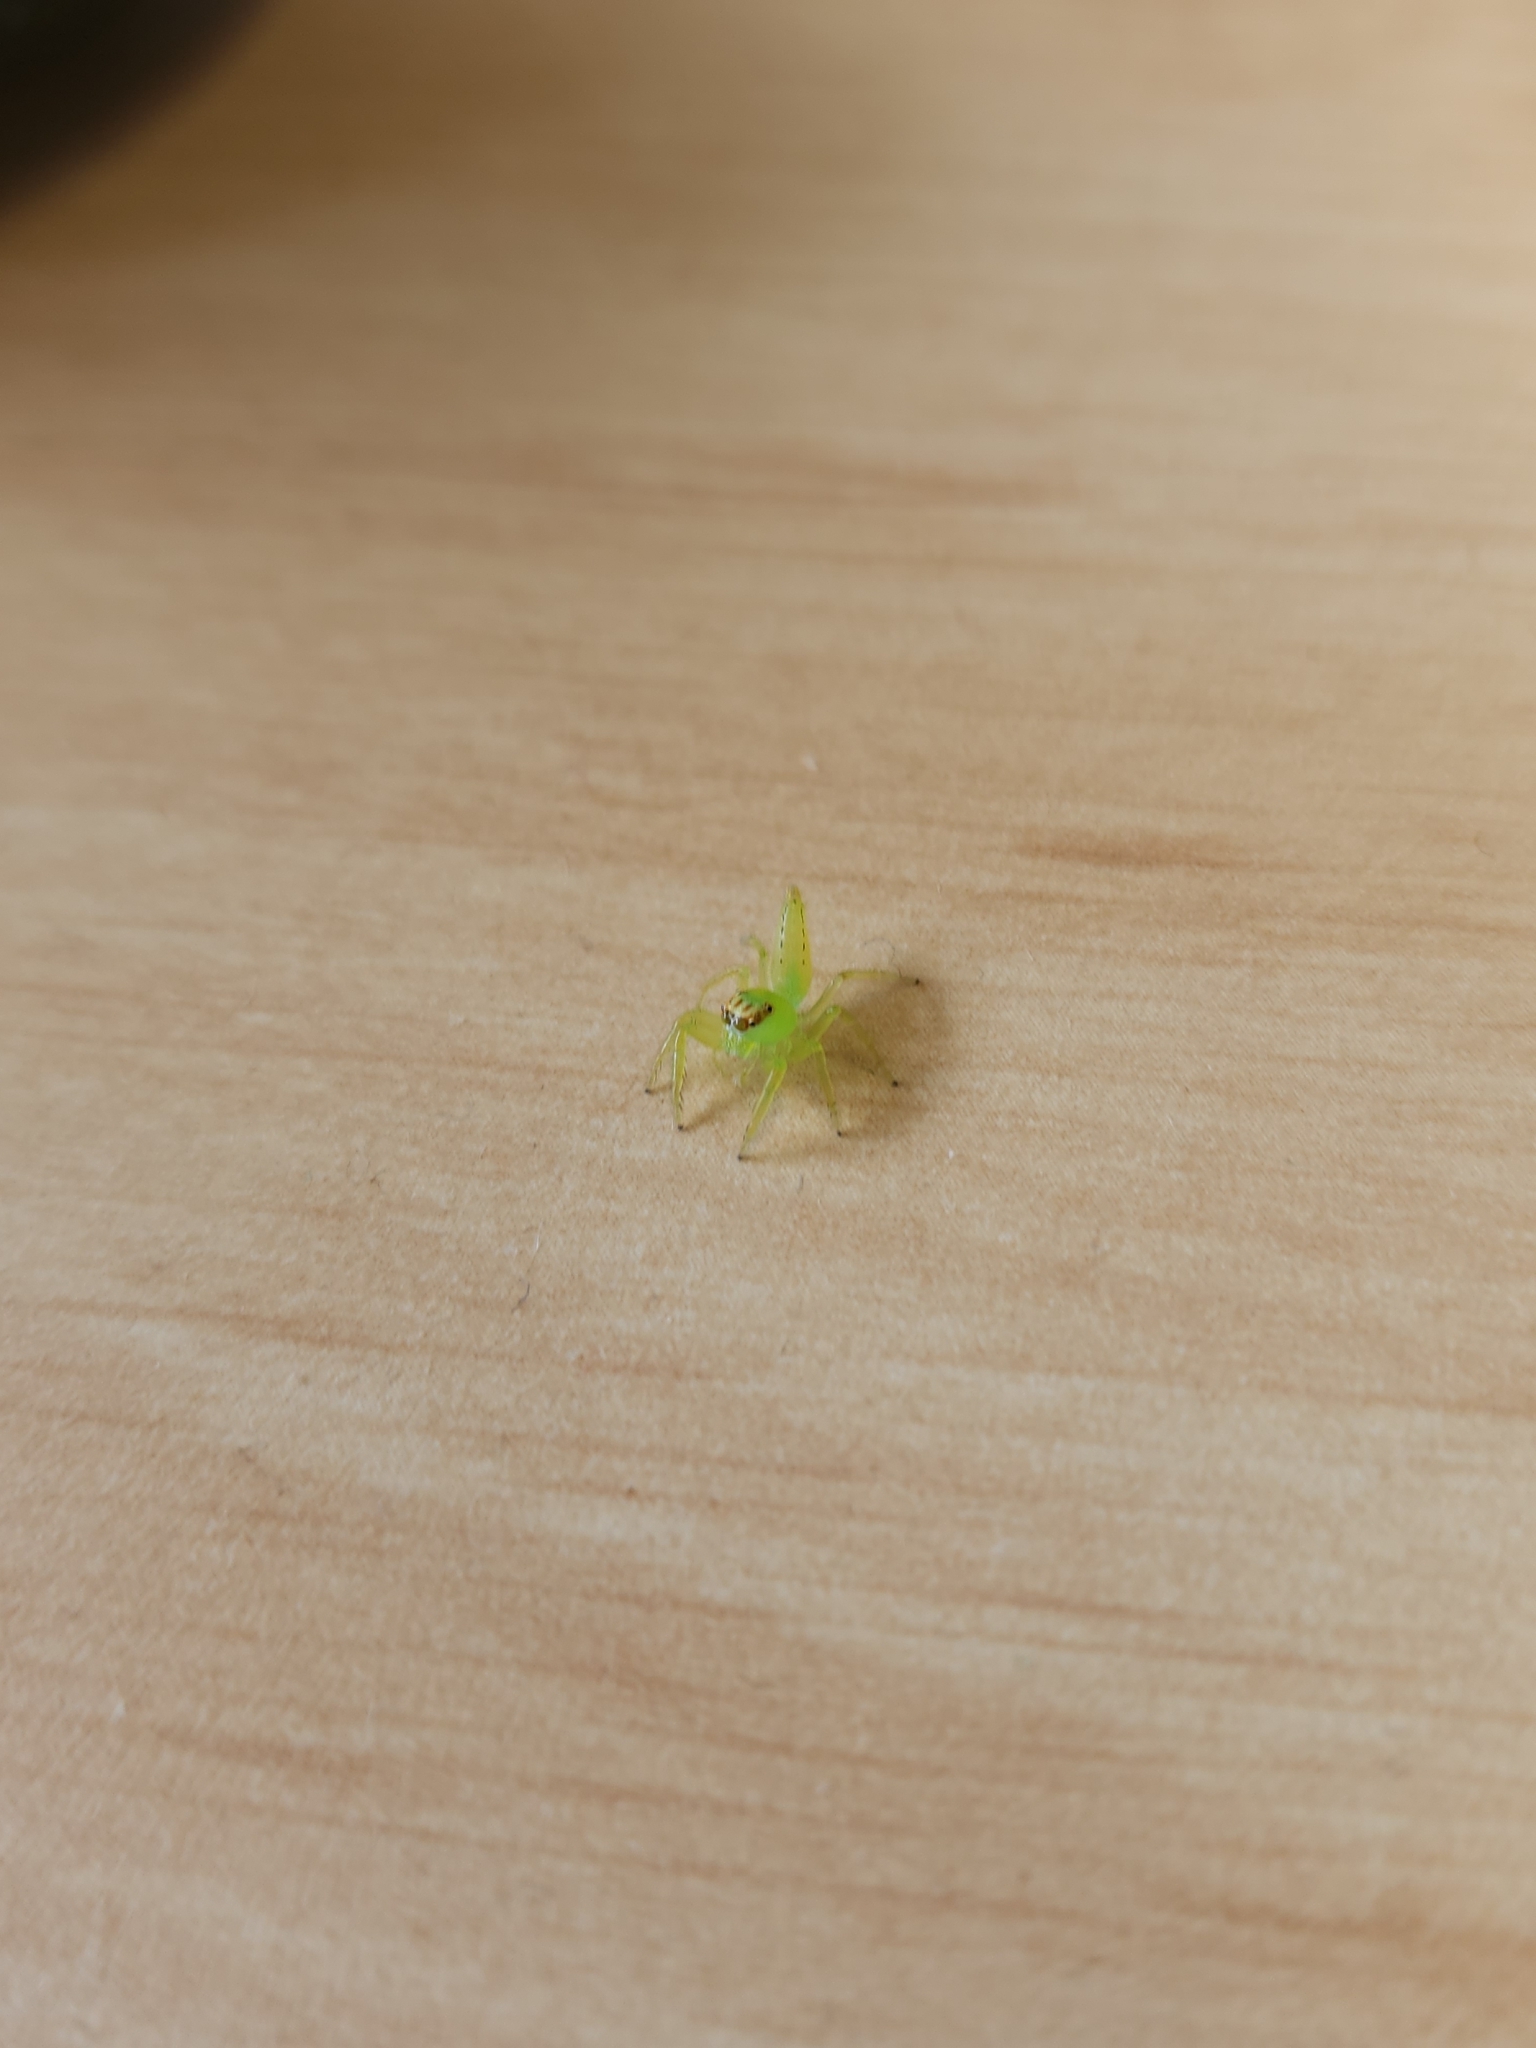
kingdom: Animalia
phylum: Arthropoda
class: Arachnida
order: Araneae
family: Salticidae
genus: Mopsus
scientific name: Mopsus mormon
